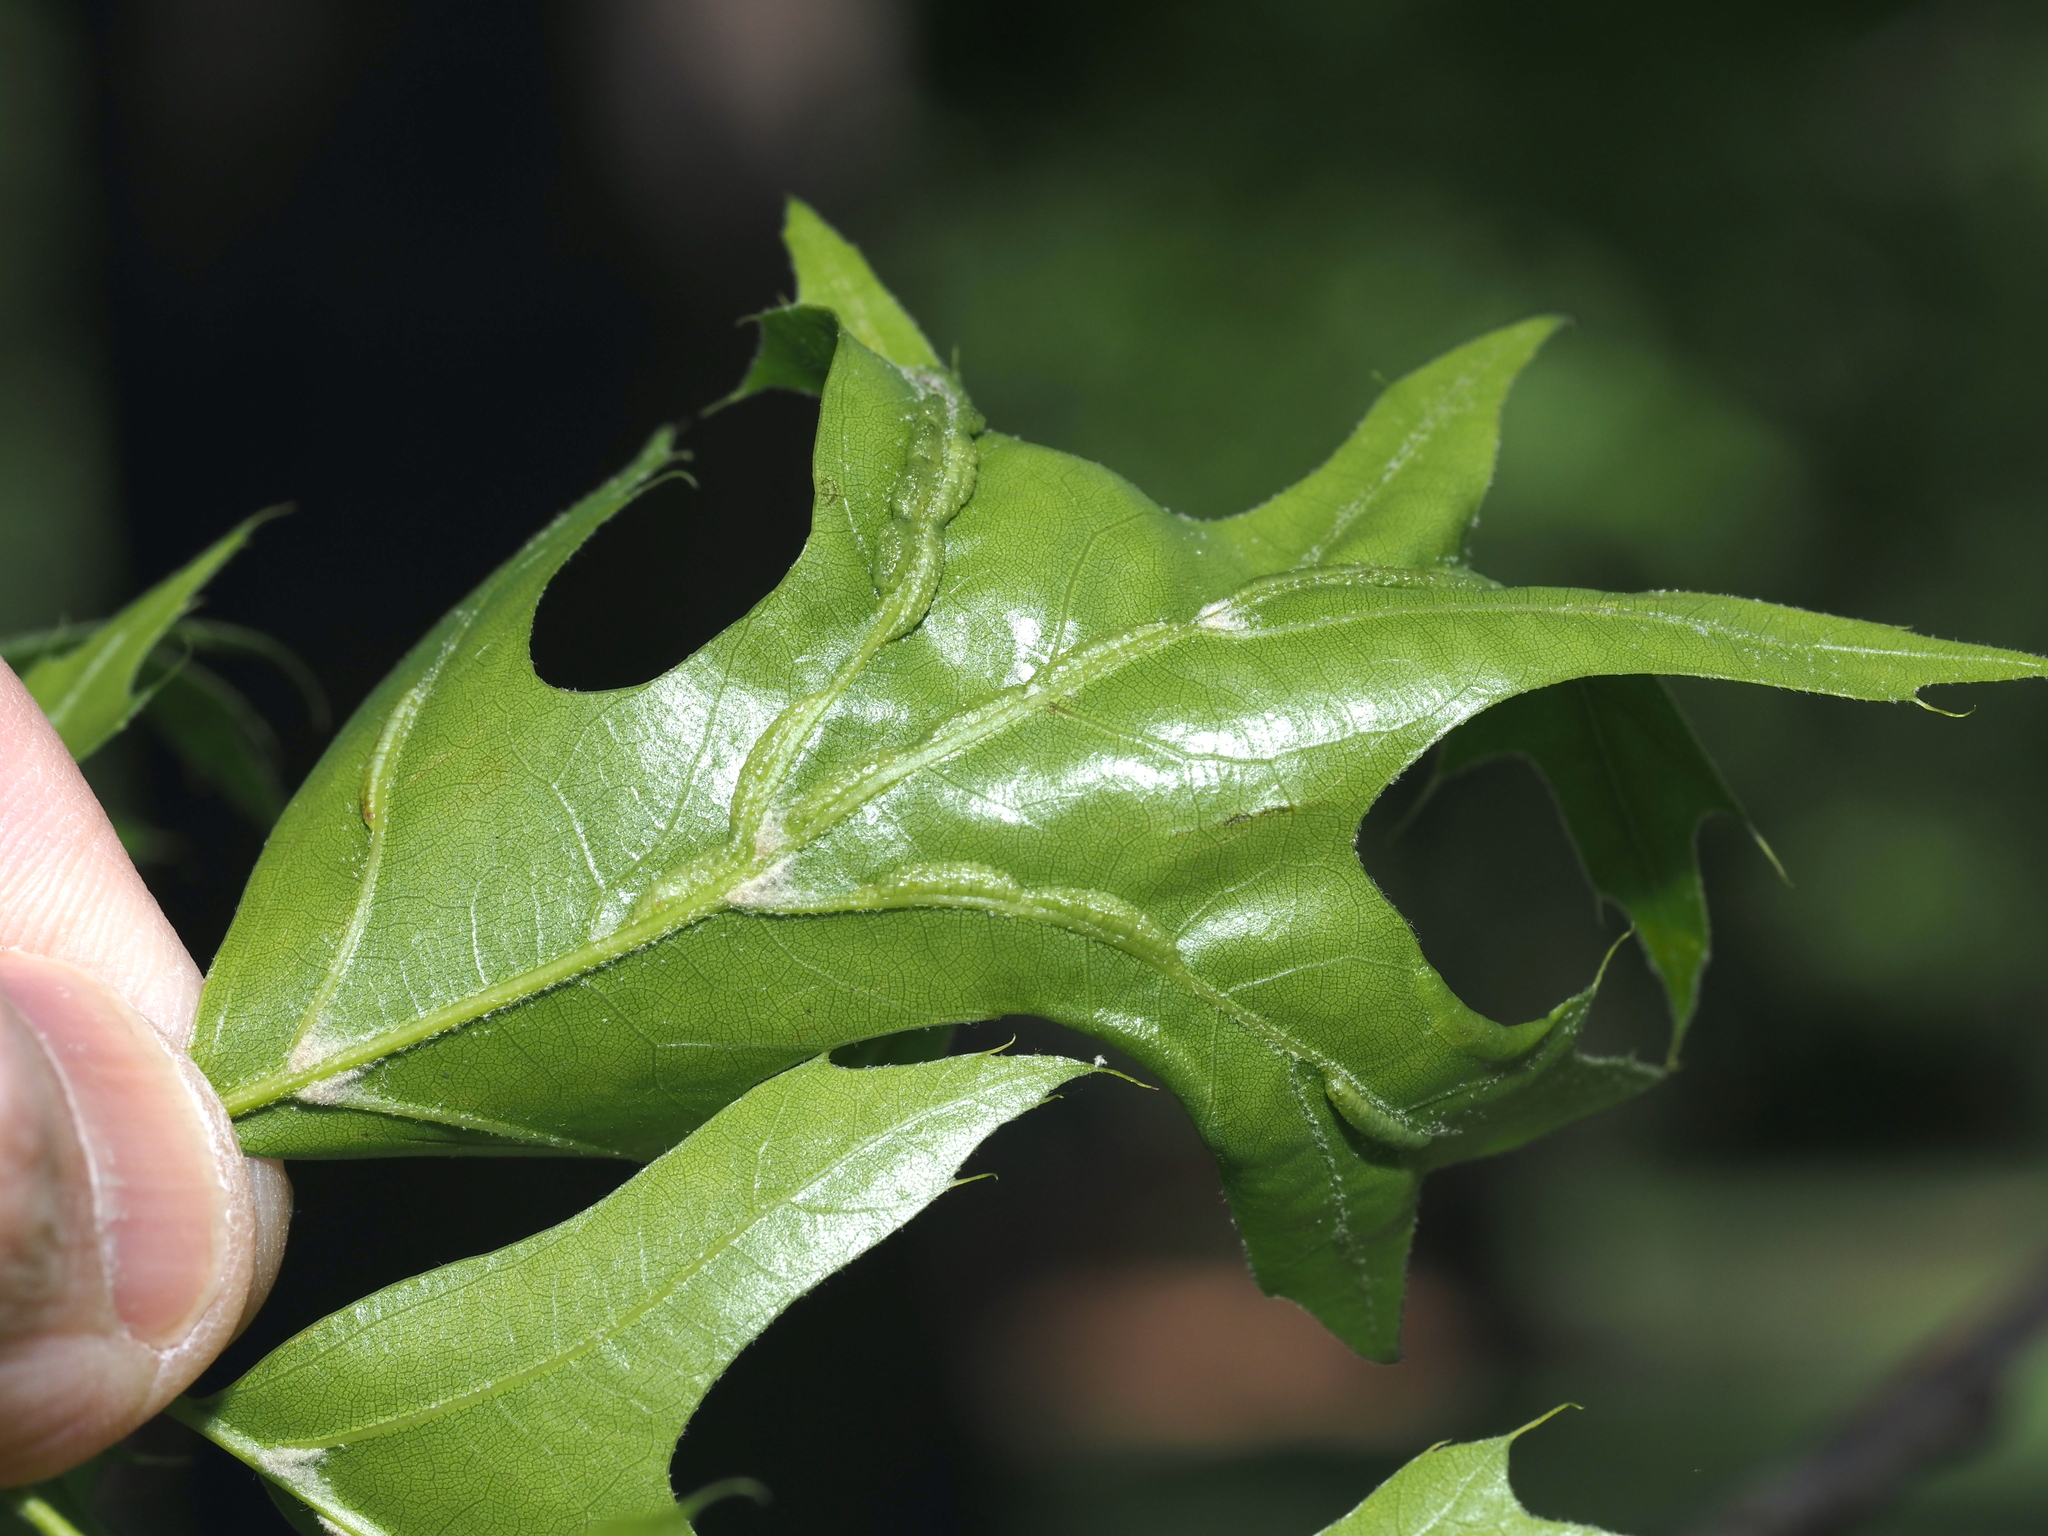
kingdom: Animalia
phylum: Arthropoda
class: Insecta
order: Diptera
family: Cecidomyiidae
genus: Macrodiplosis
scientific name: Macrodiplosis q-orucum
